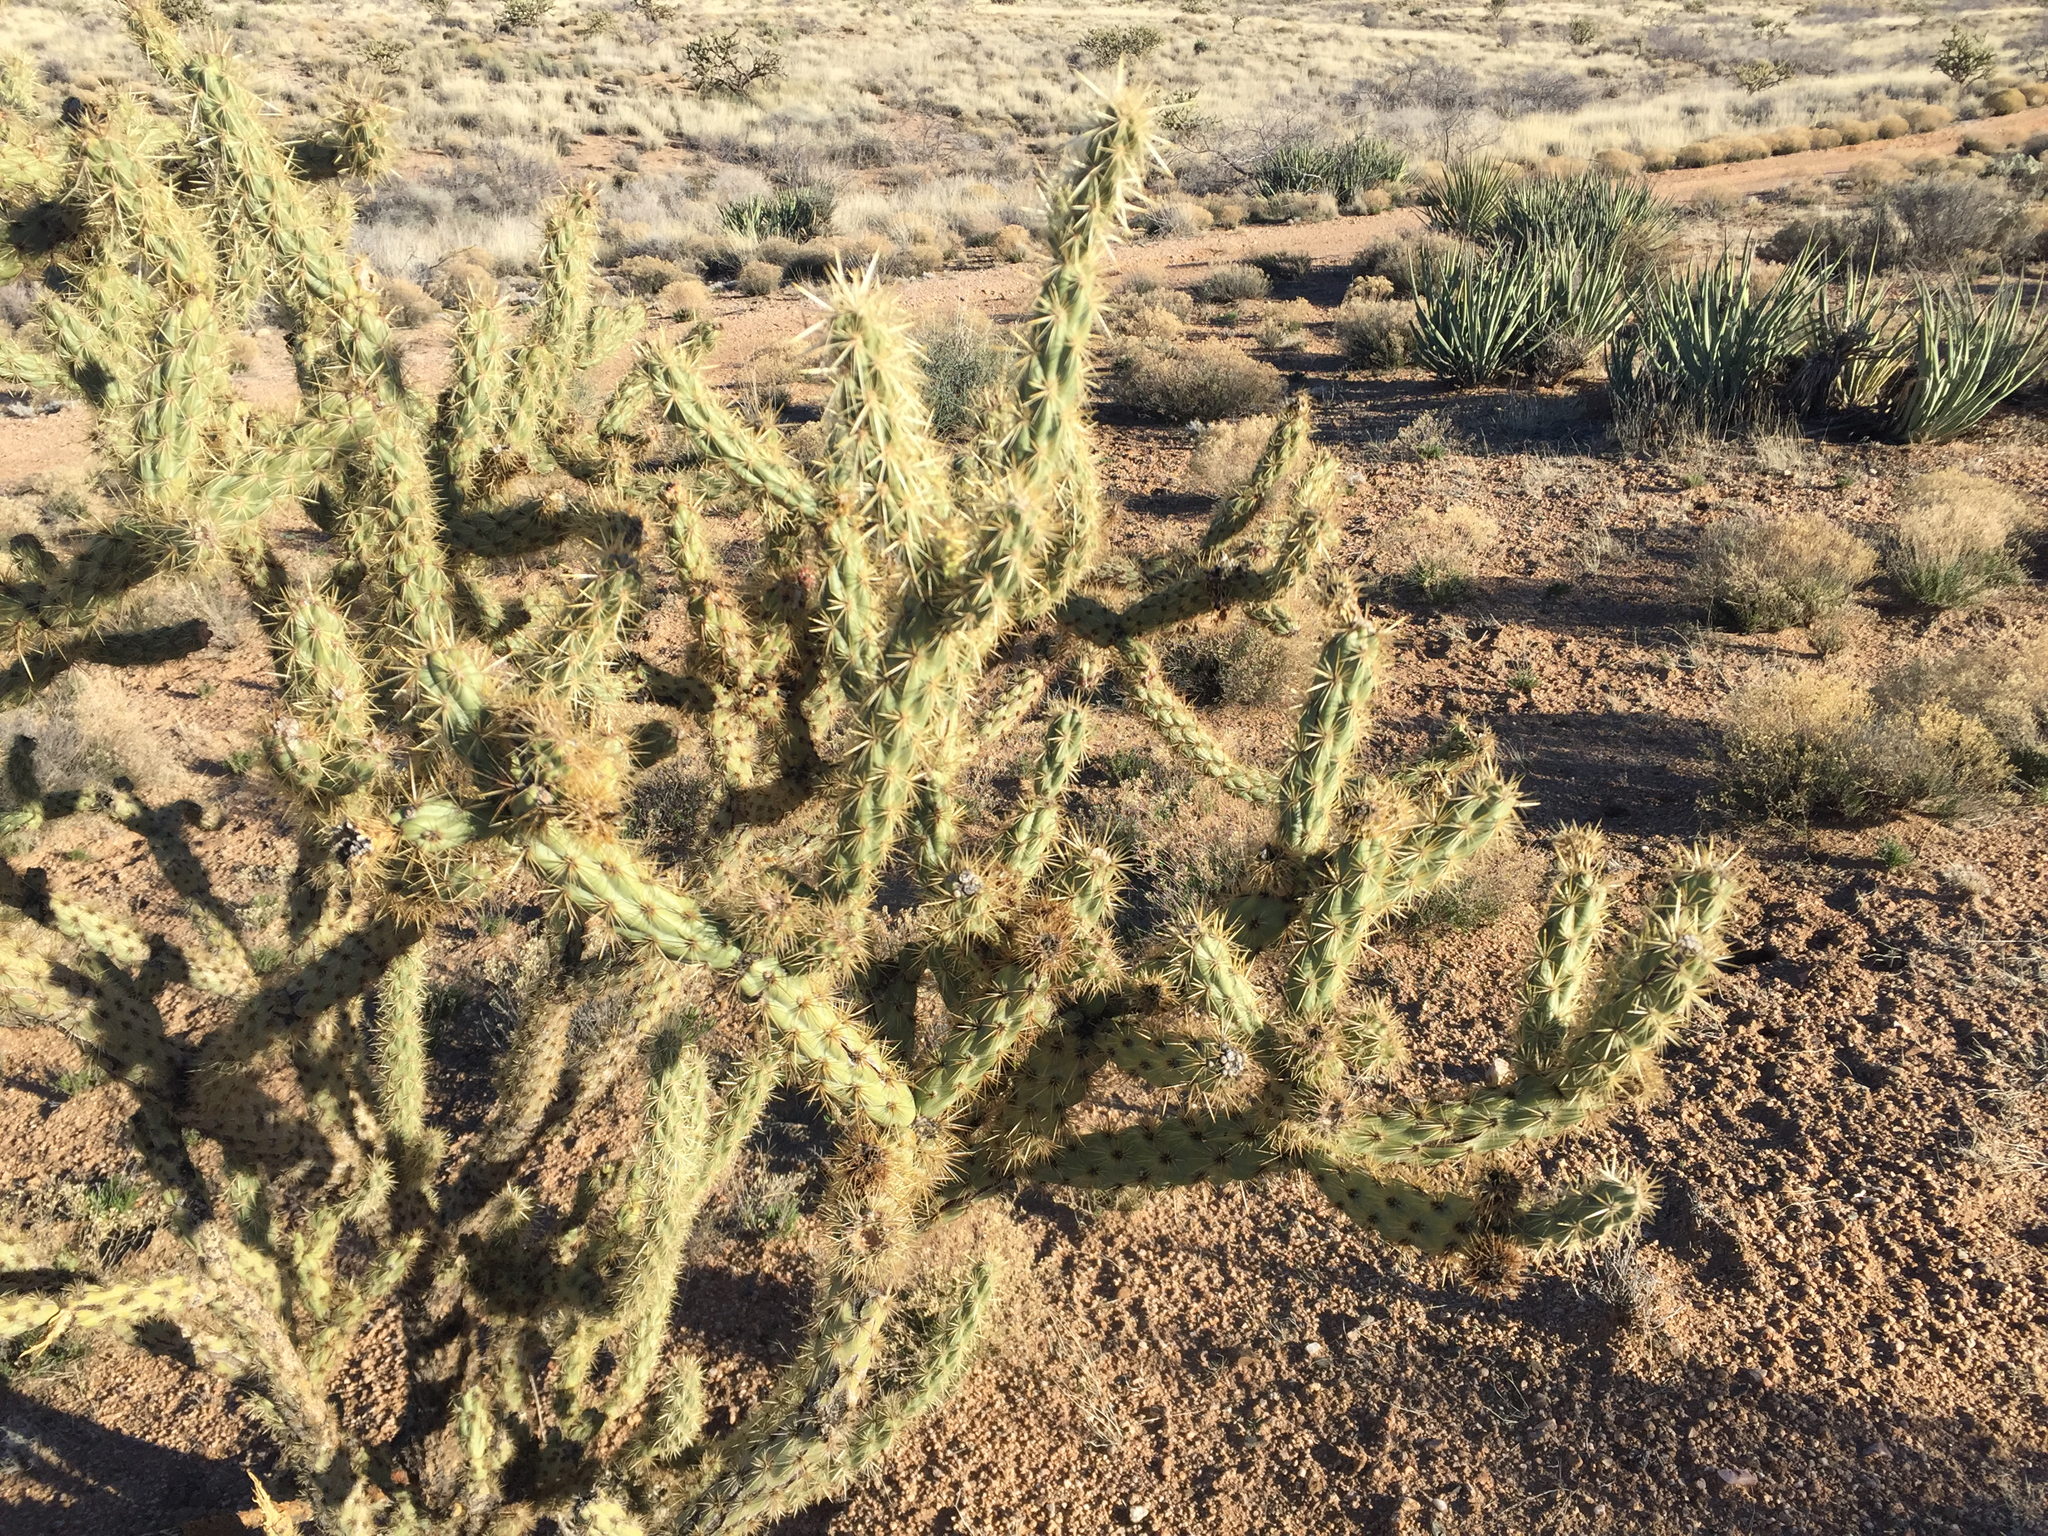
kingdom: Plantae
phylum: Tracheophyta
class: Magnoliopsida
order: Caryophyllales
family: Cactaceae
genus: Cylindropuntia
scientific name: Cylindropuntia acanthocarpa
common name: Buckhorn cholla
